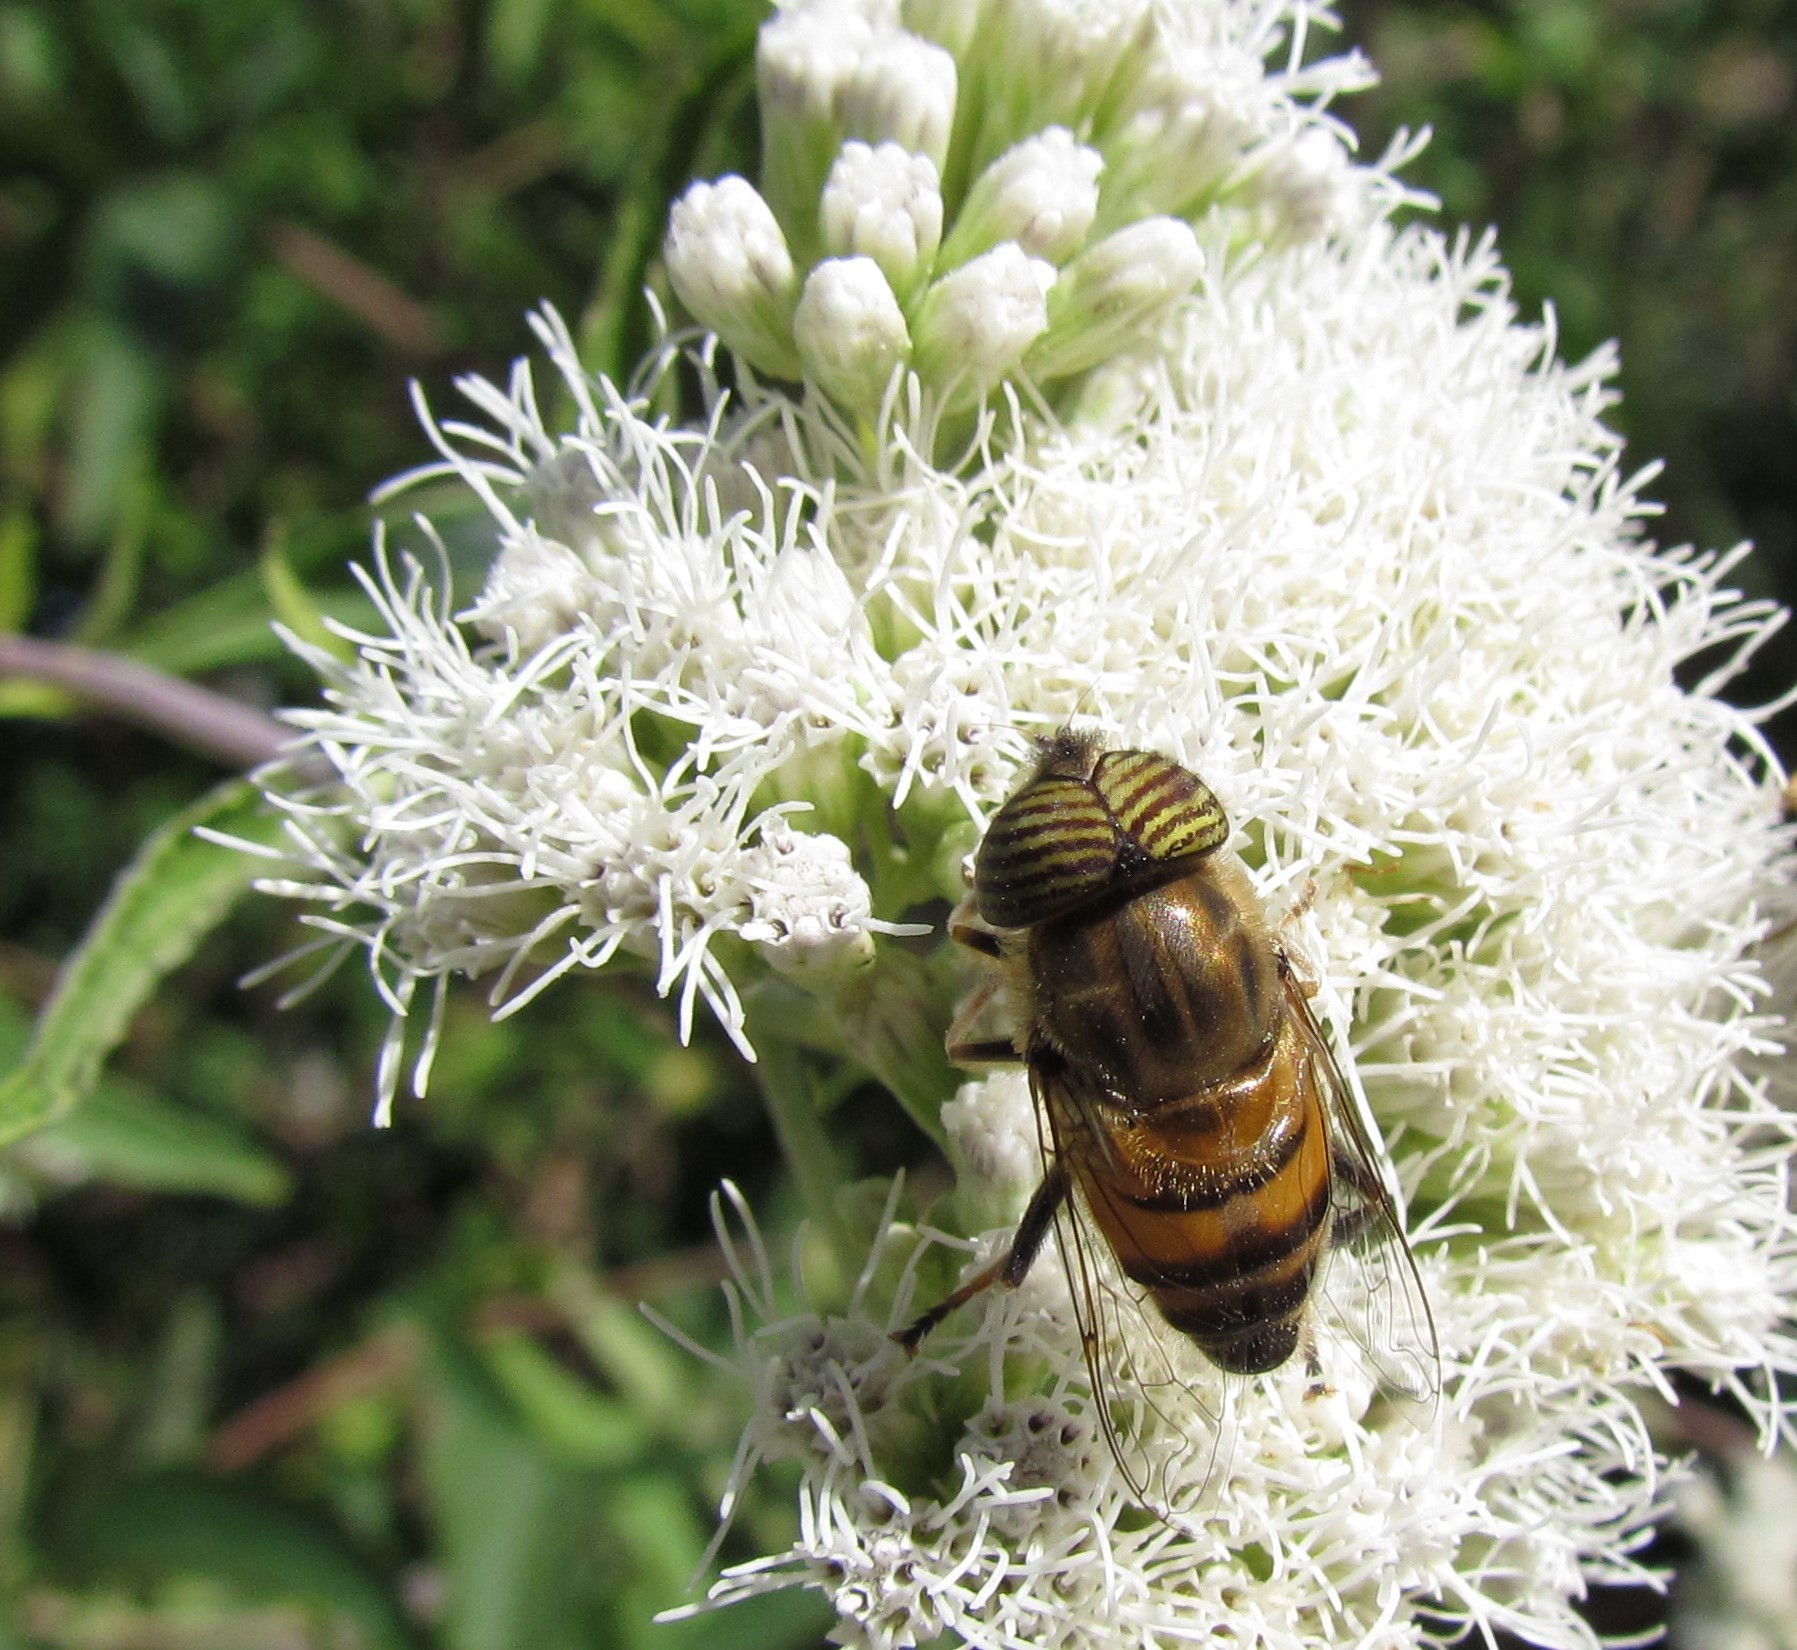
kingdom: Animalia
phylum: Arthropoda
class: Insecta
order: Diptera
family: Syrphidae
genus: Eristalinus
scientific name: Eristalinus taeniops
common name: Syrphid fly
